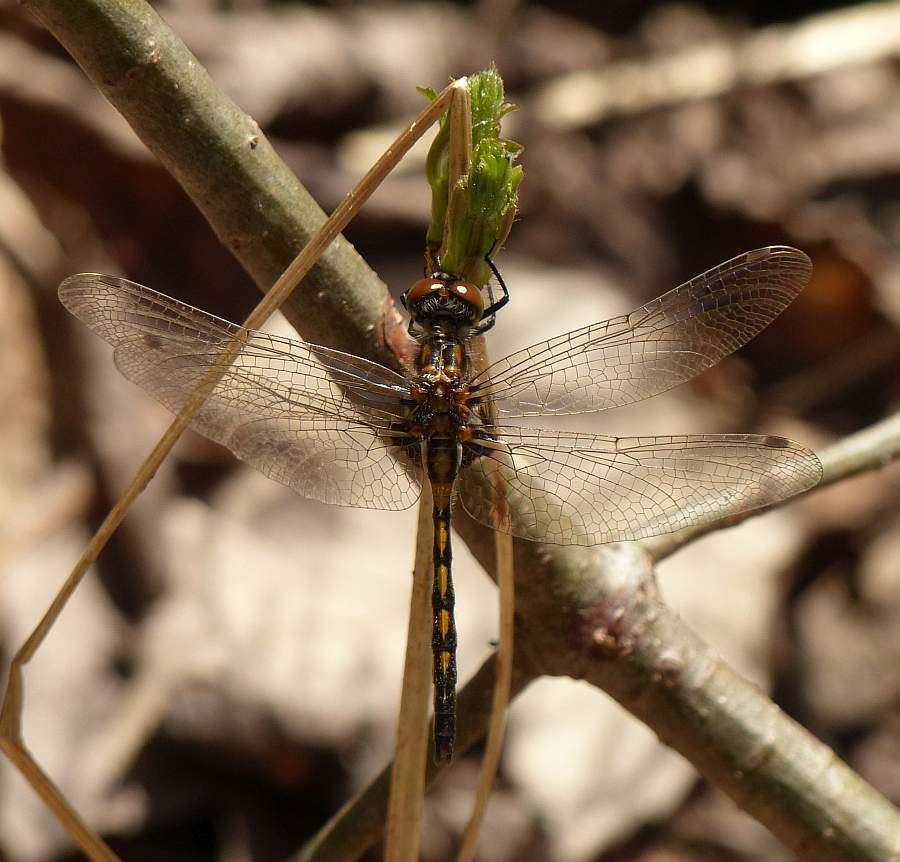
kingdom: Animalia
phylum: Arthropoda
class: Insecta
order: Odonata
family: Libellulidae
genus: Leucorrhinia
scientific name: Leucorrhinia hudsonica
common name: Hudsonian whiteface
